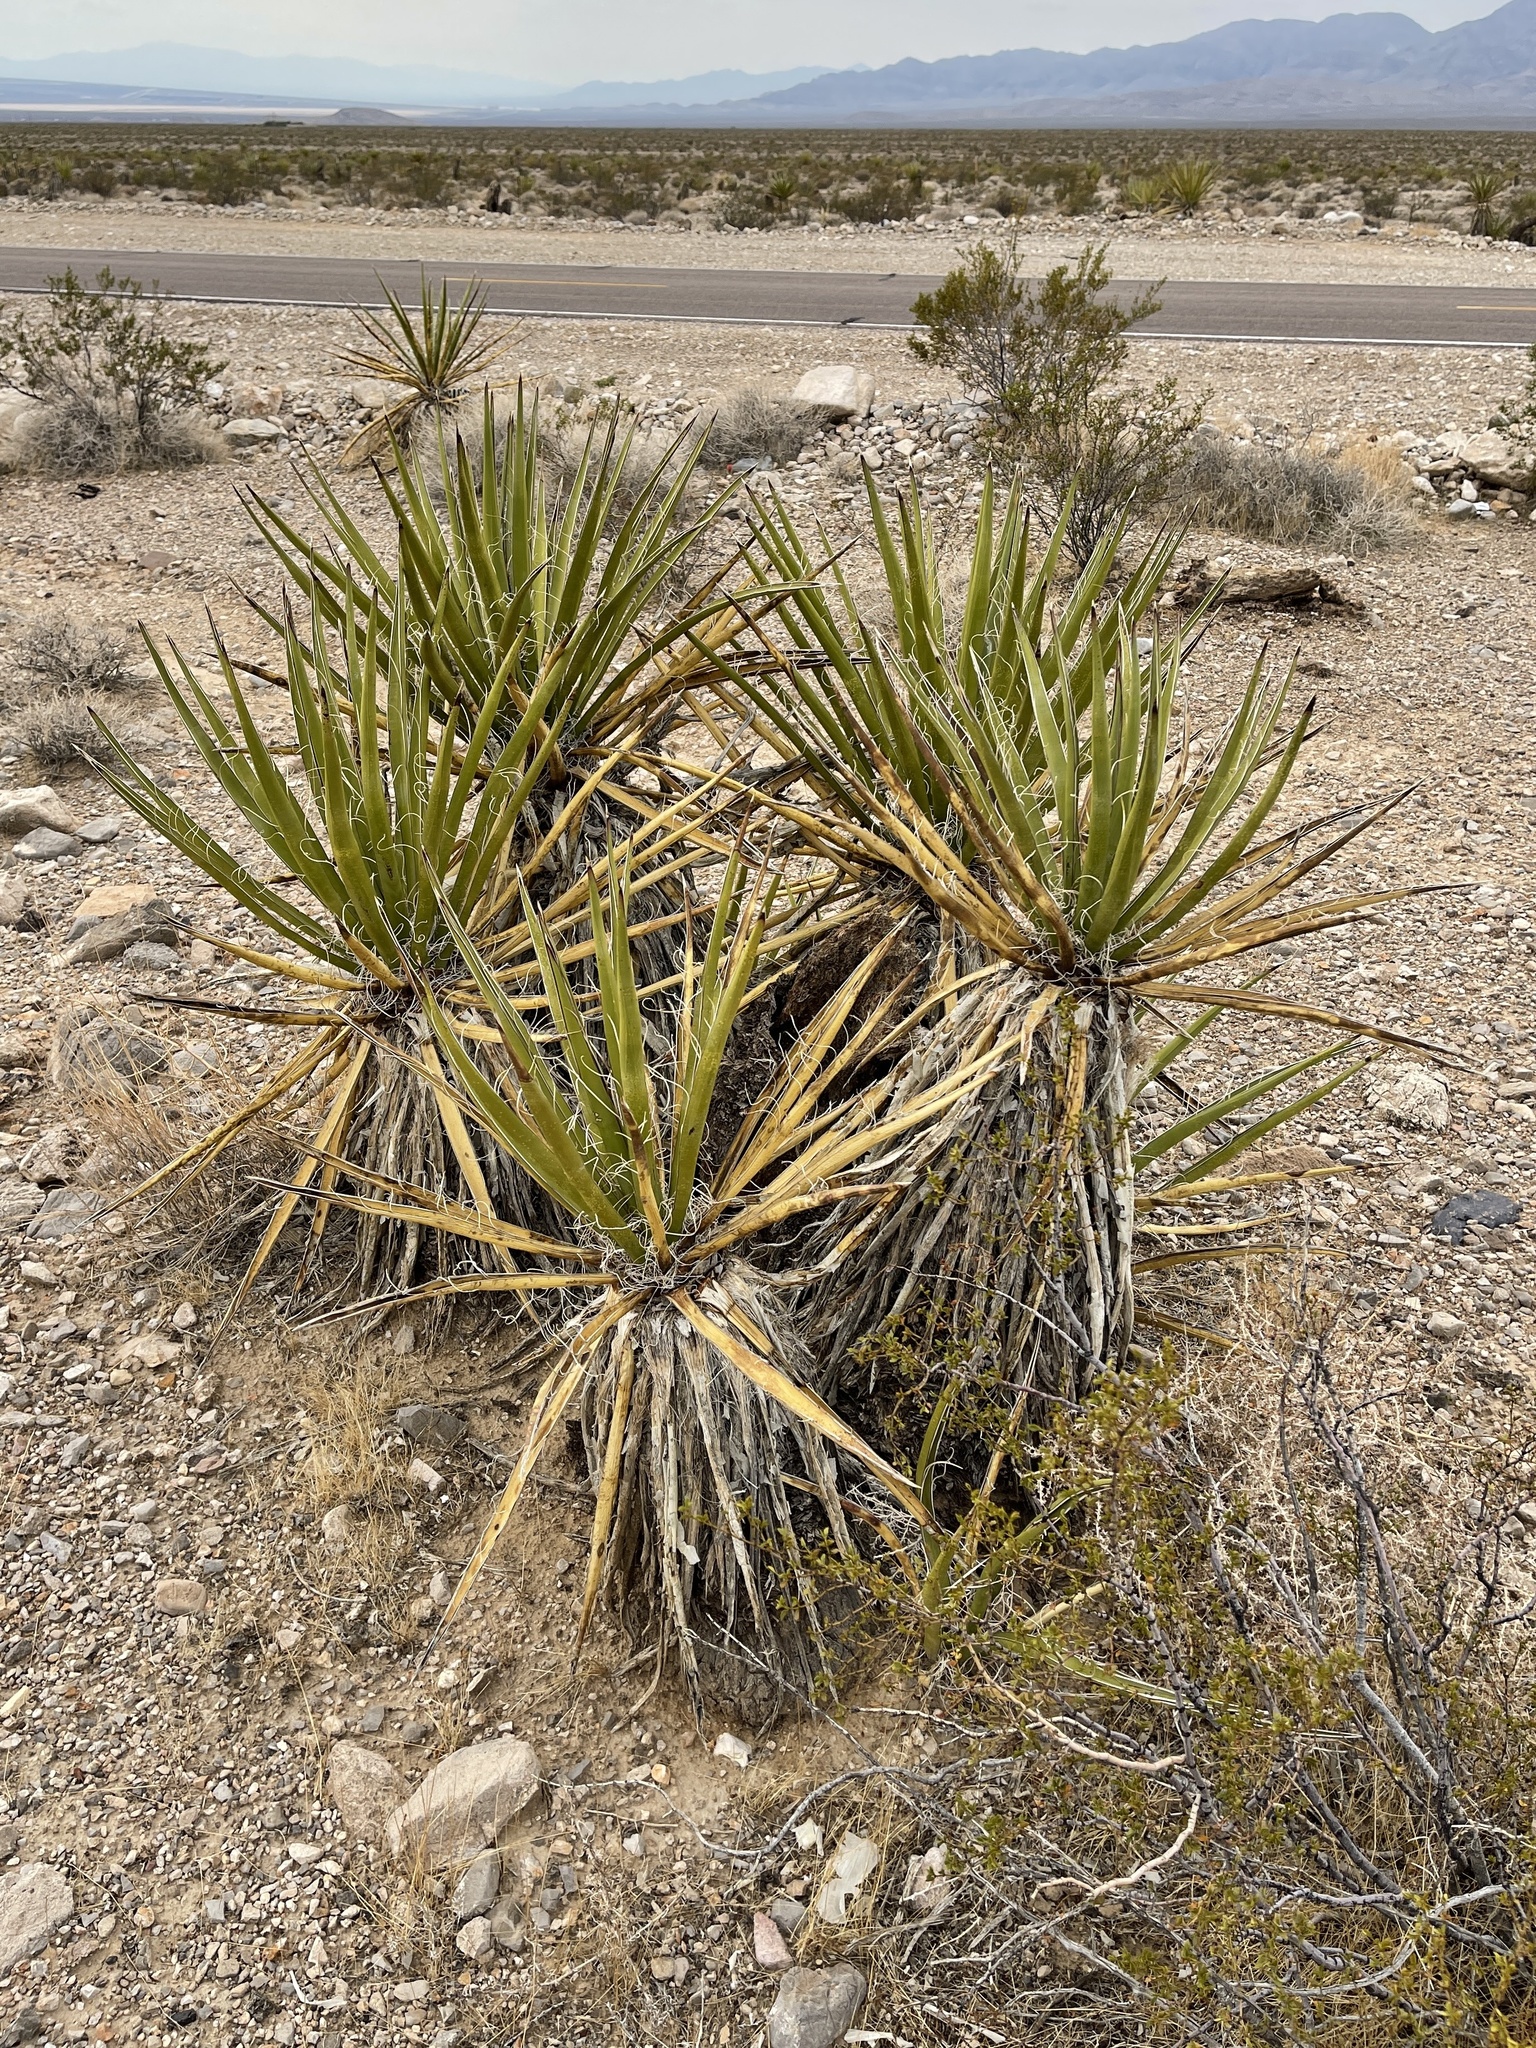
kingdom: Plantae
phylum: Tracheophyta
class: Liliopsida
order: Asparagales
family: Asparagaceae
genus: Yucca
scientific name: Yucca schidigera
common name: Mojave yucca
